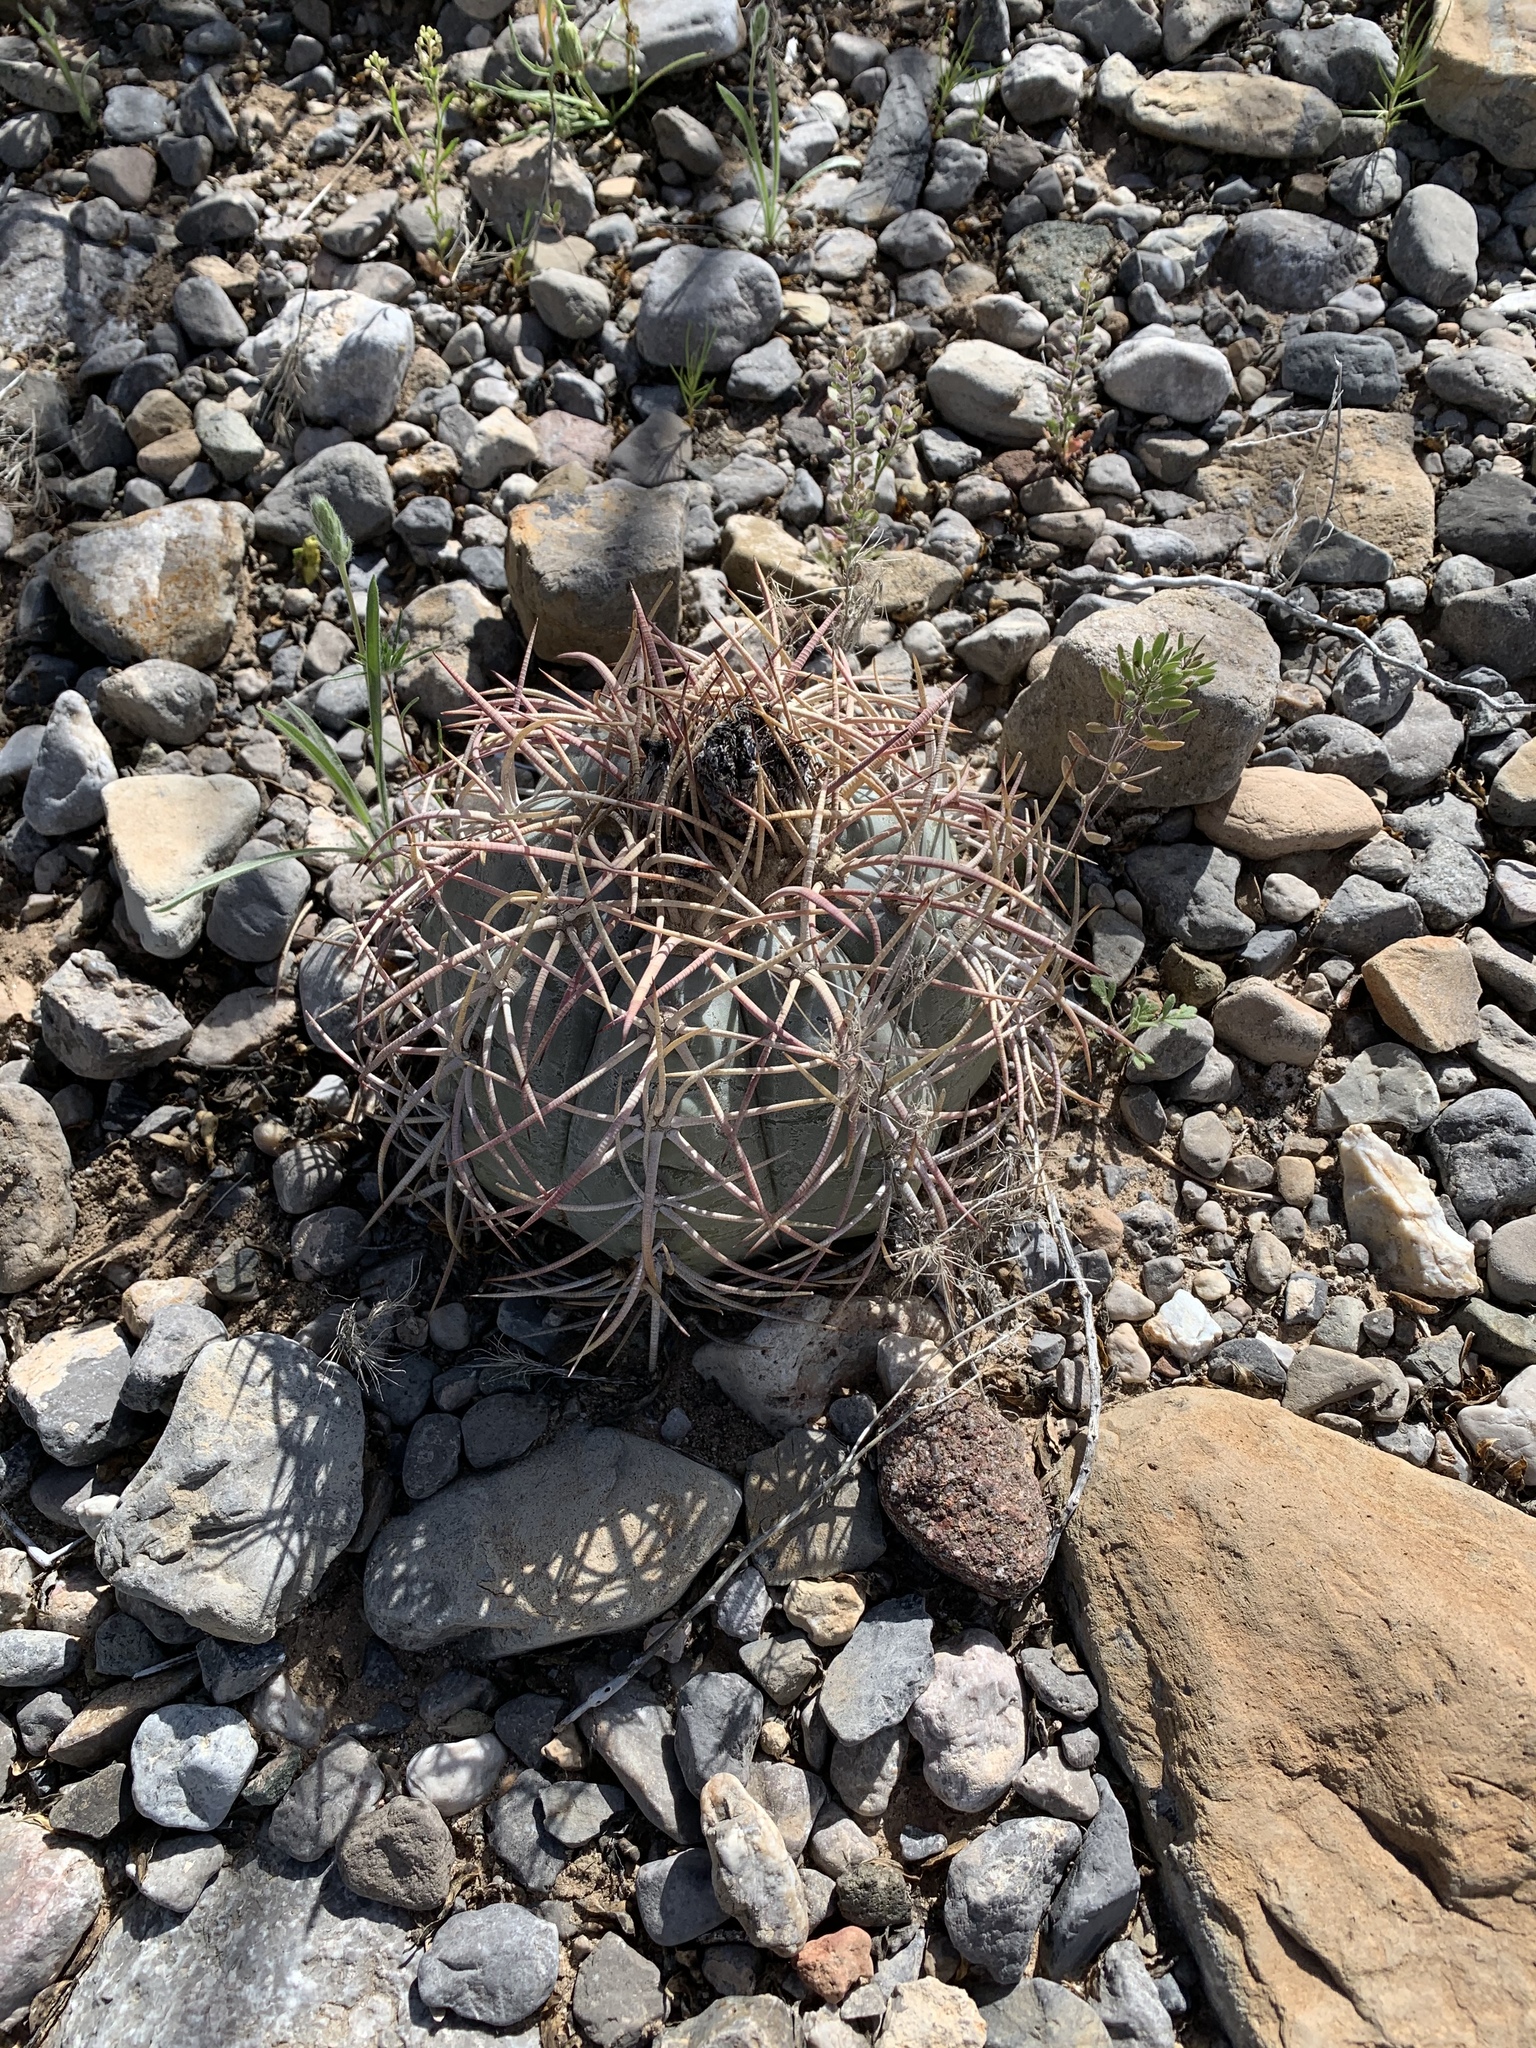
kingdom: Plantae
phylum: Tracheophyta
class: Magnoliopsida
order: Caryophyllales
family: Cactaceae
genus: Echinocactus
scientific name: Echinocactus horizonthalonius
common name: Devilshead
